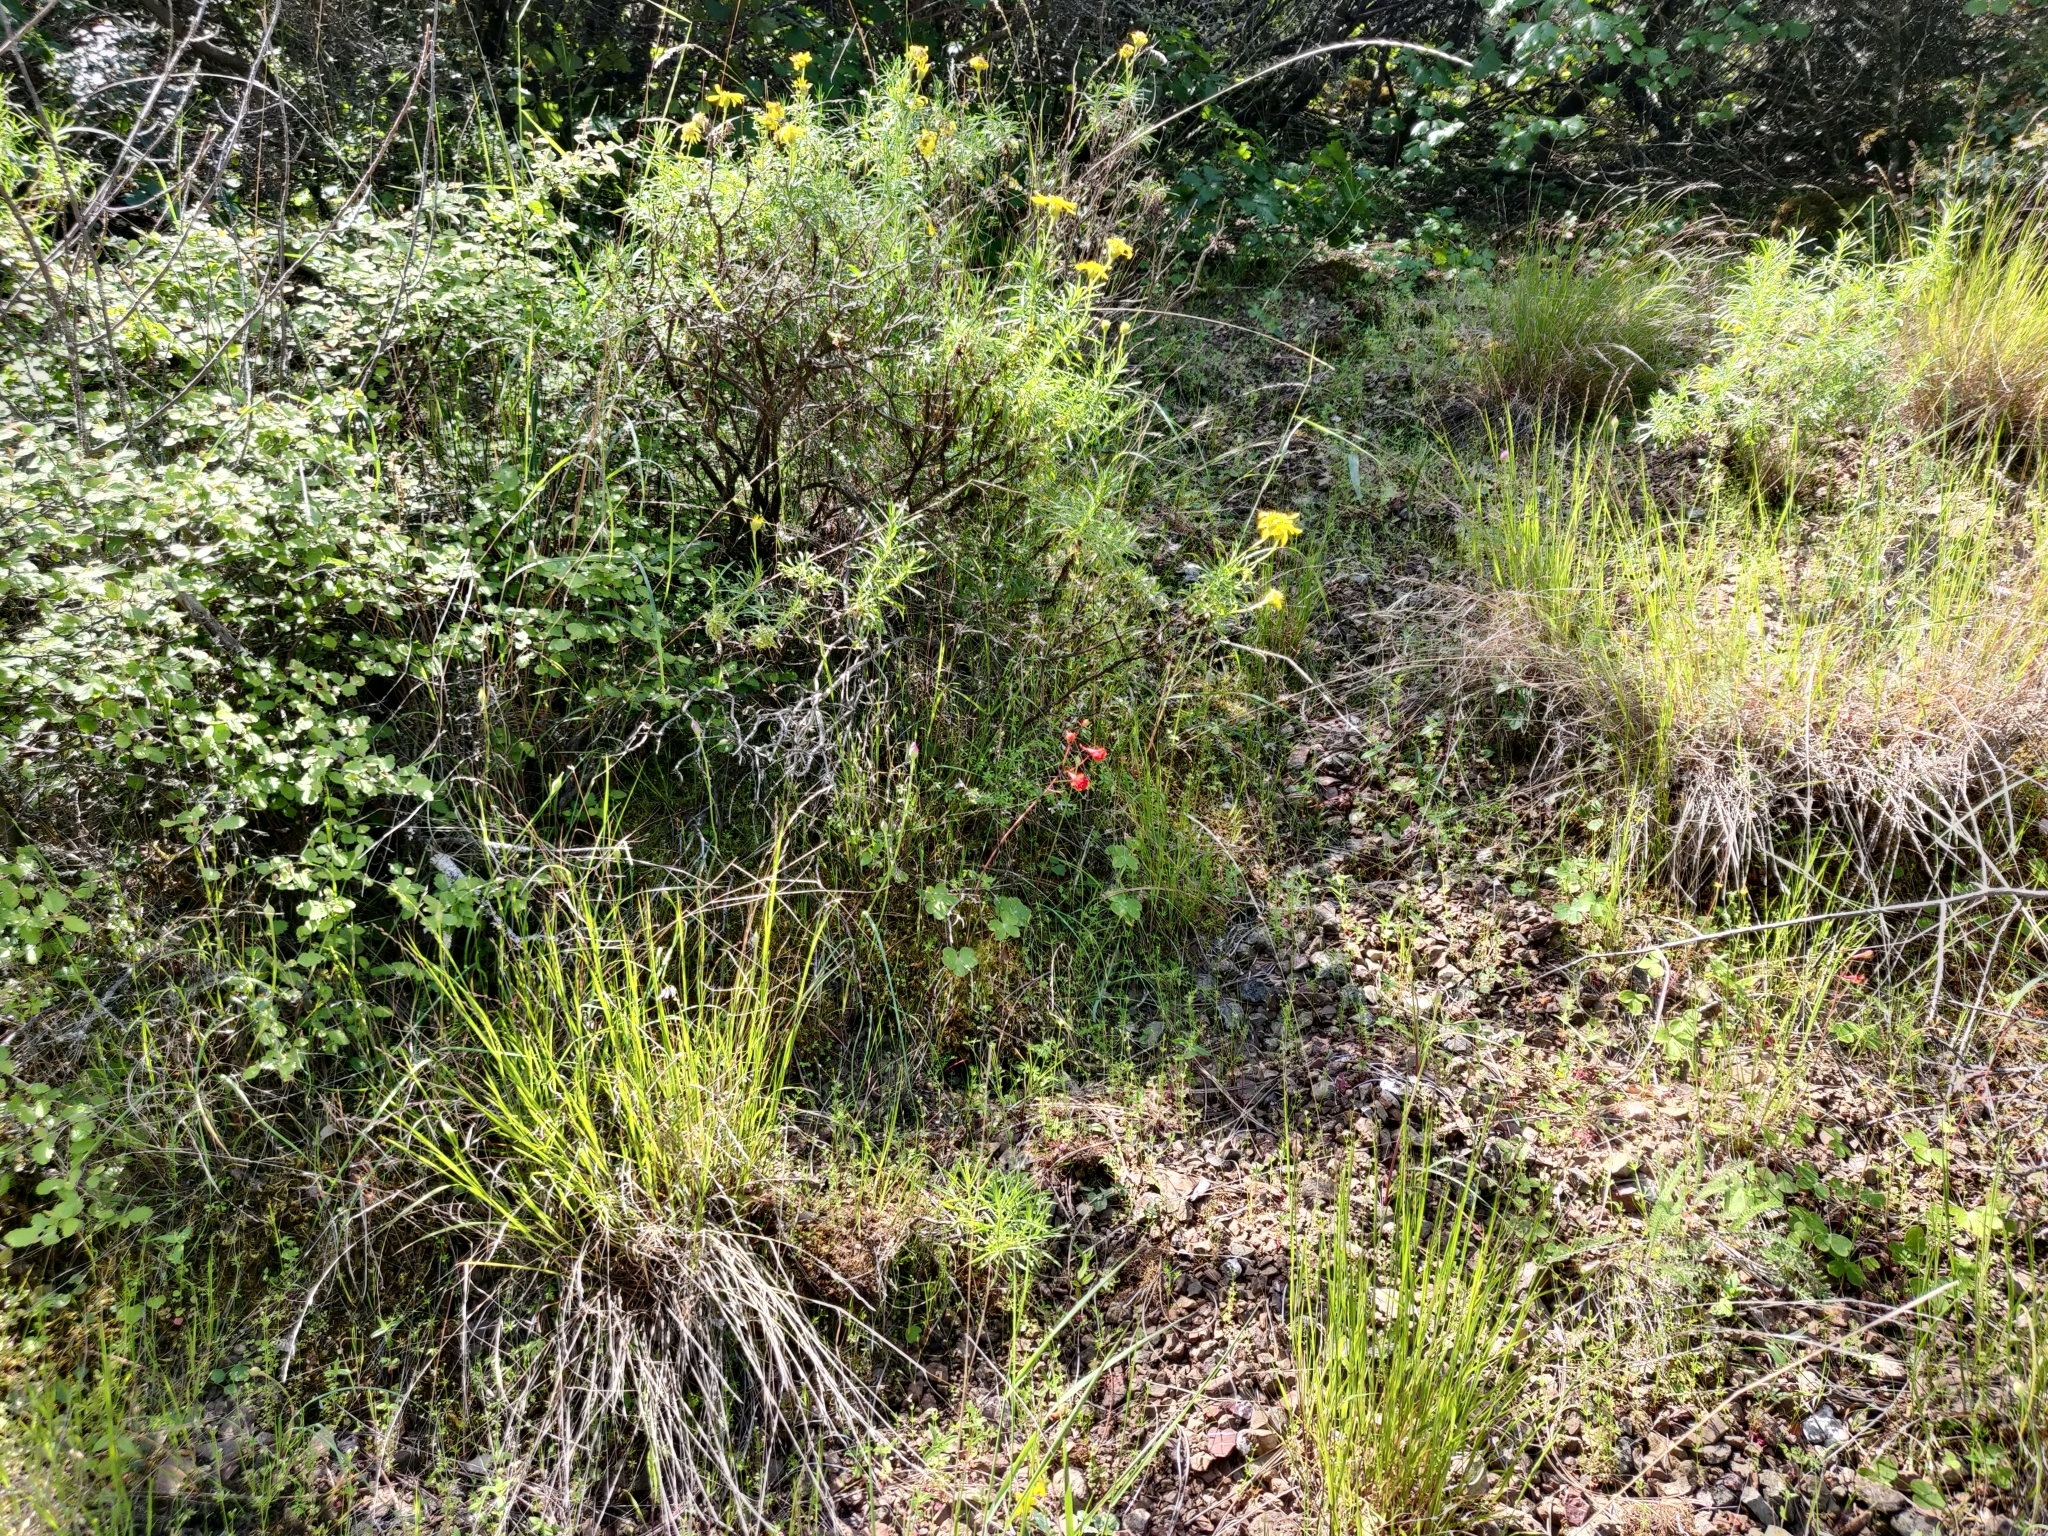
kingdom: Plantae
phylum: Tracheophyta
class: Magnoliopsida
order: Ranunculales
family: Ranunculaceae
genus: Delphinium
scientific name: Delphinium nudicaule
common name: Red larkspur
